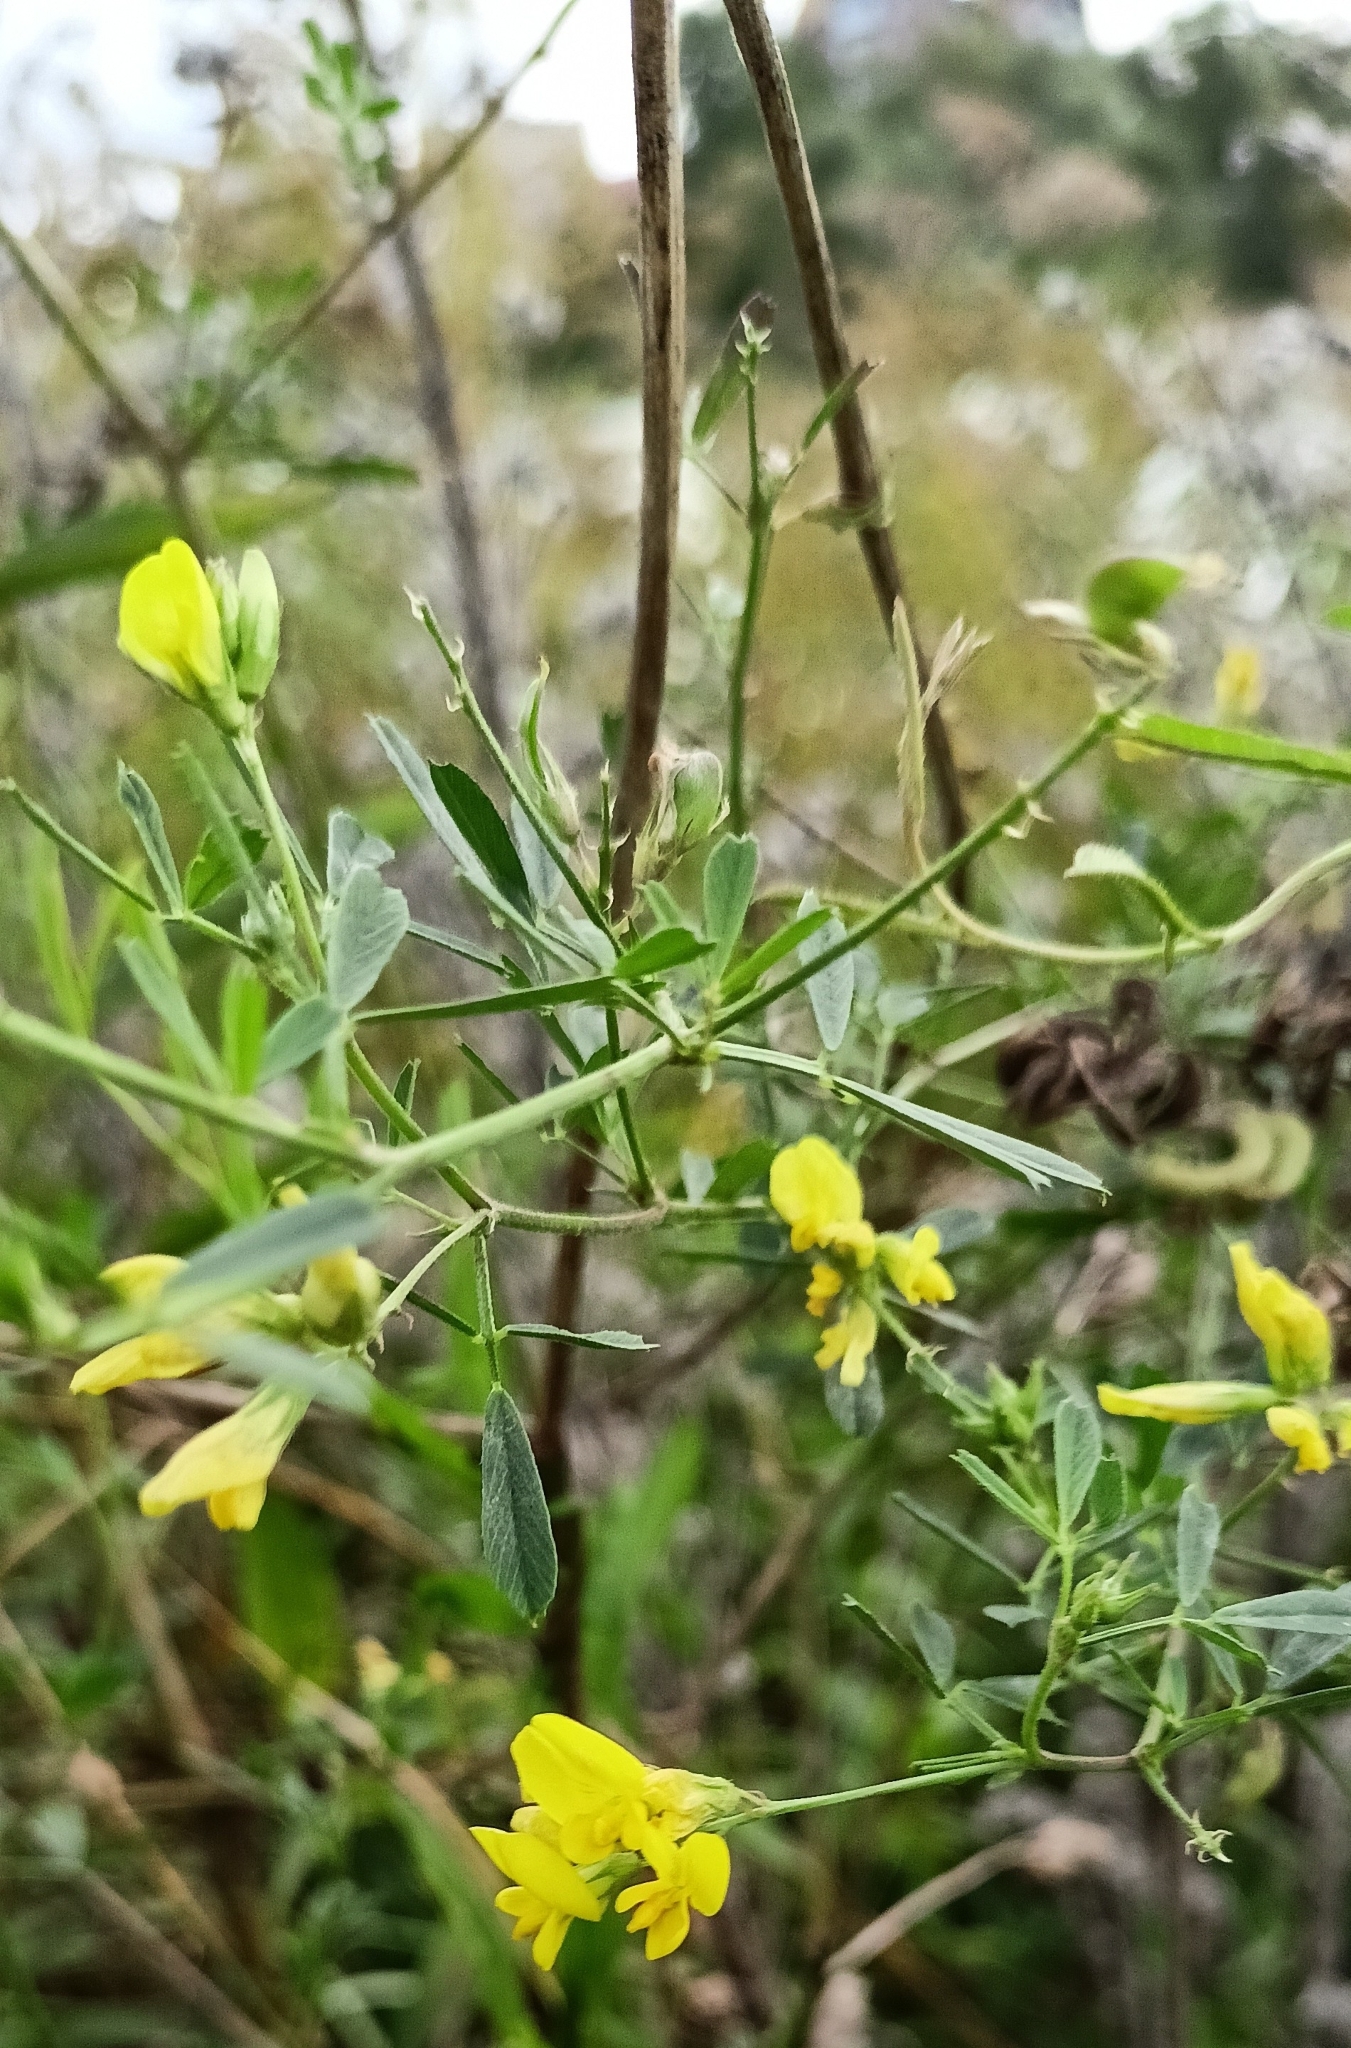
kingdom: Plantae
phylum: Tracheophyta
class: Magnoliopsida
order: Fabales
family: Fabaceae
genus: Medicago
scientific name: Medicago falcata
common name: Sickle medick
